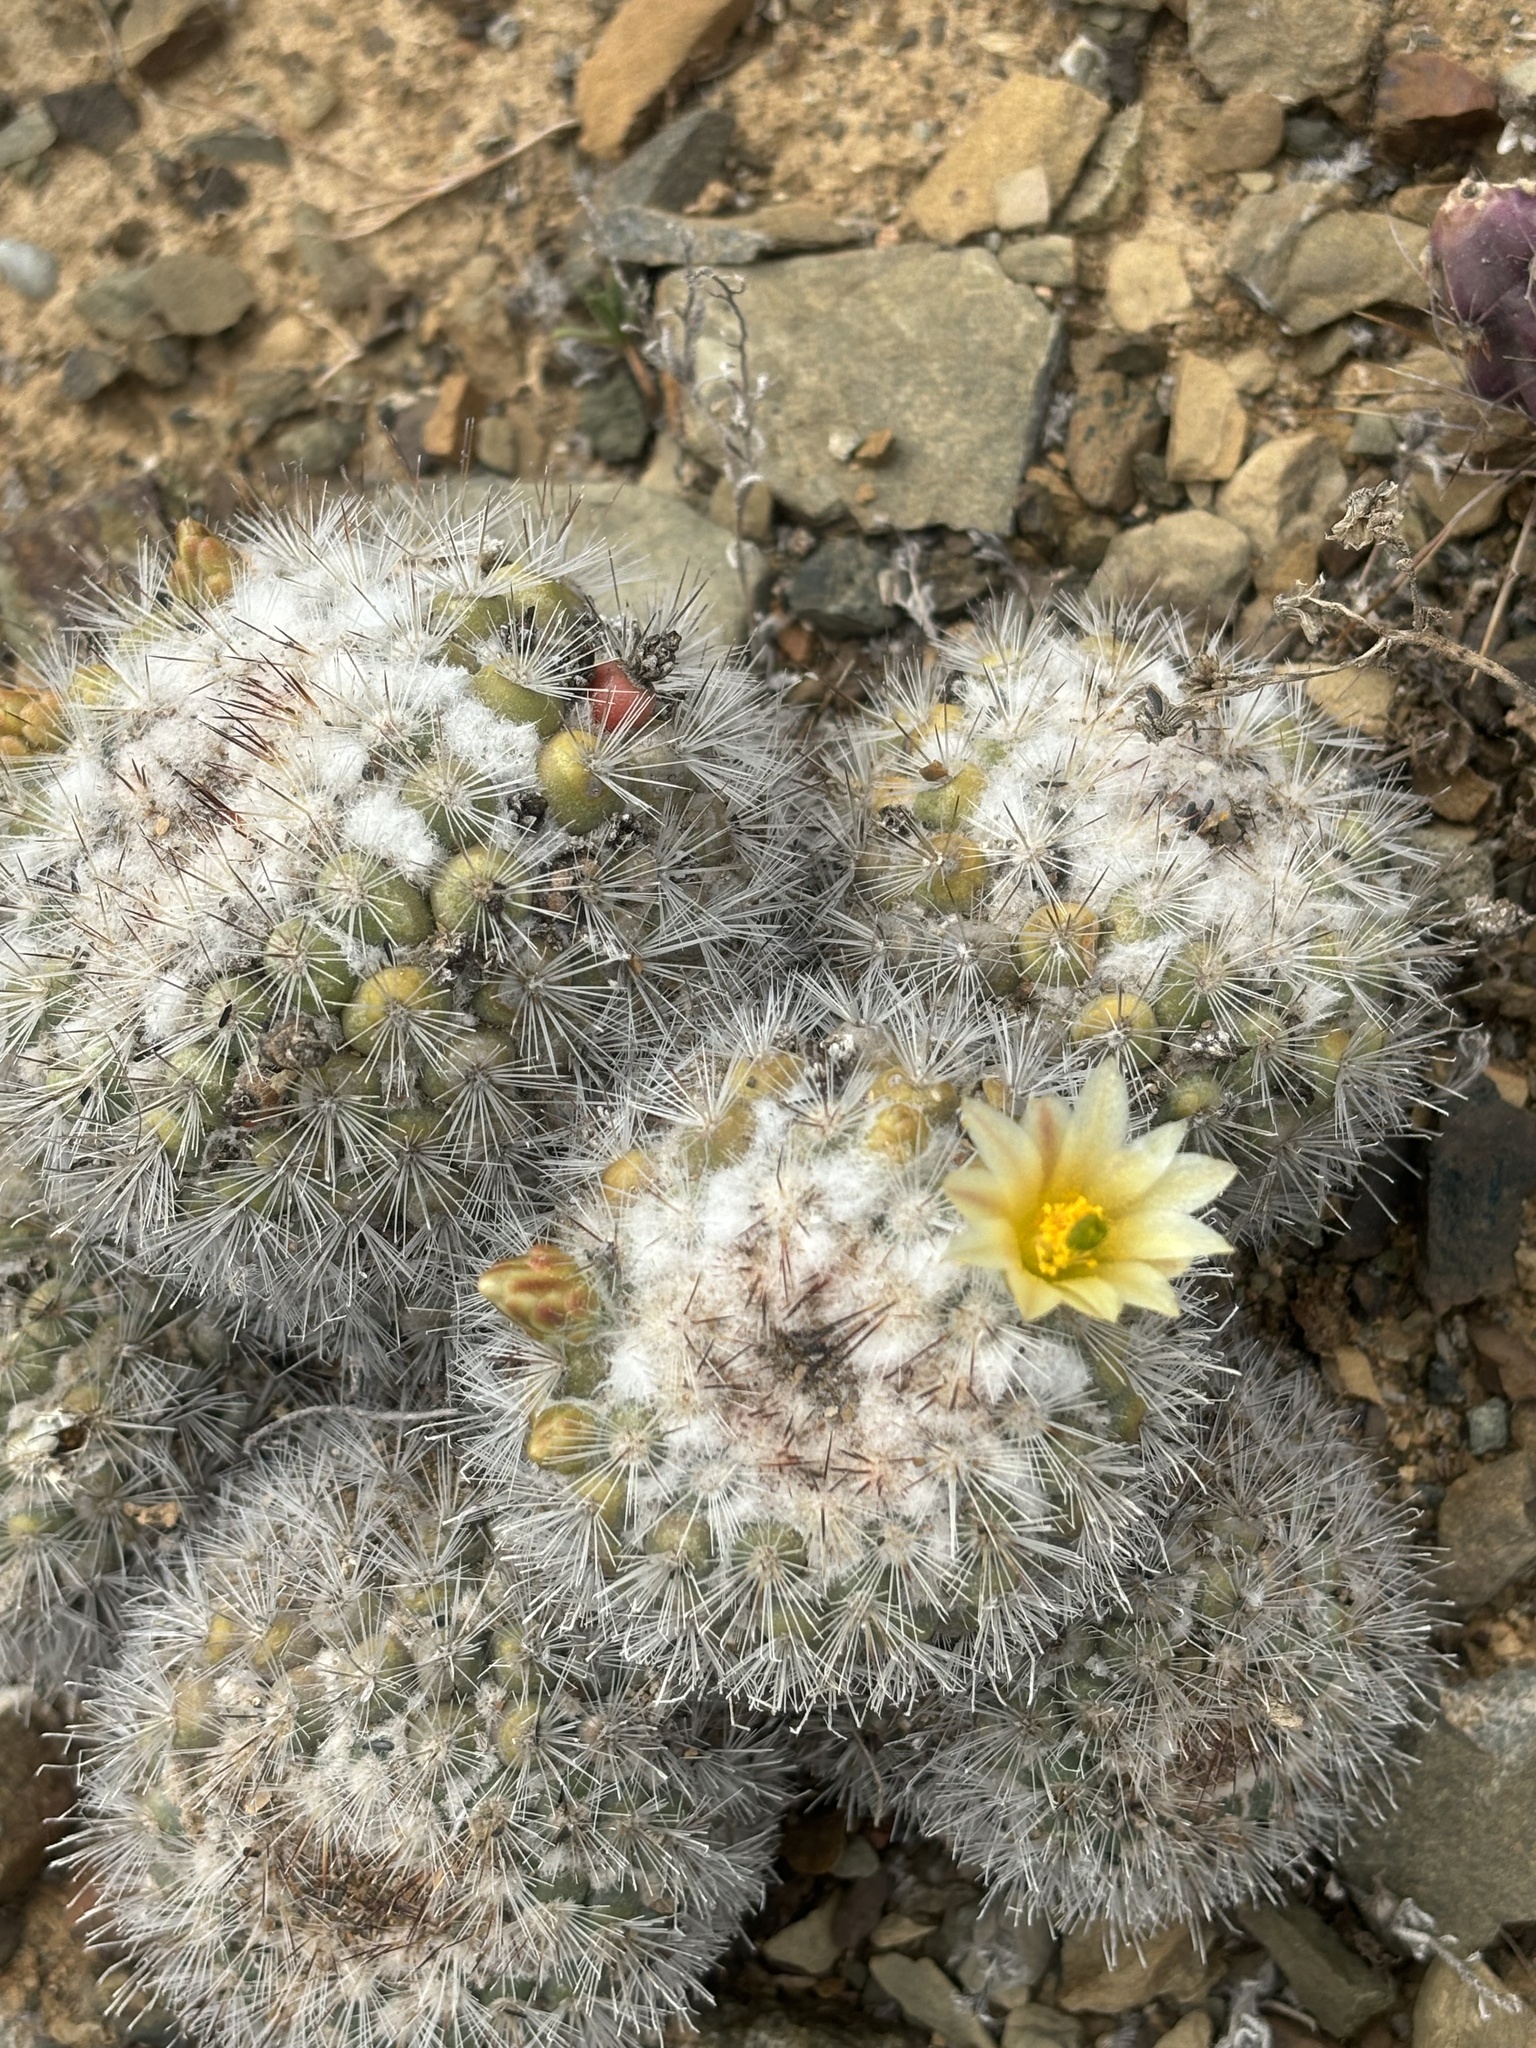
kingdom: Plantae
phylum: Tracheophyta
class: Magnoliopsida
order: Caryophyllales
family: Cactaceae
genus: Cochemiea
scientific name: Cochemiea palmeri
